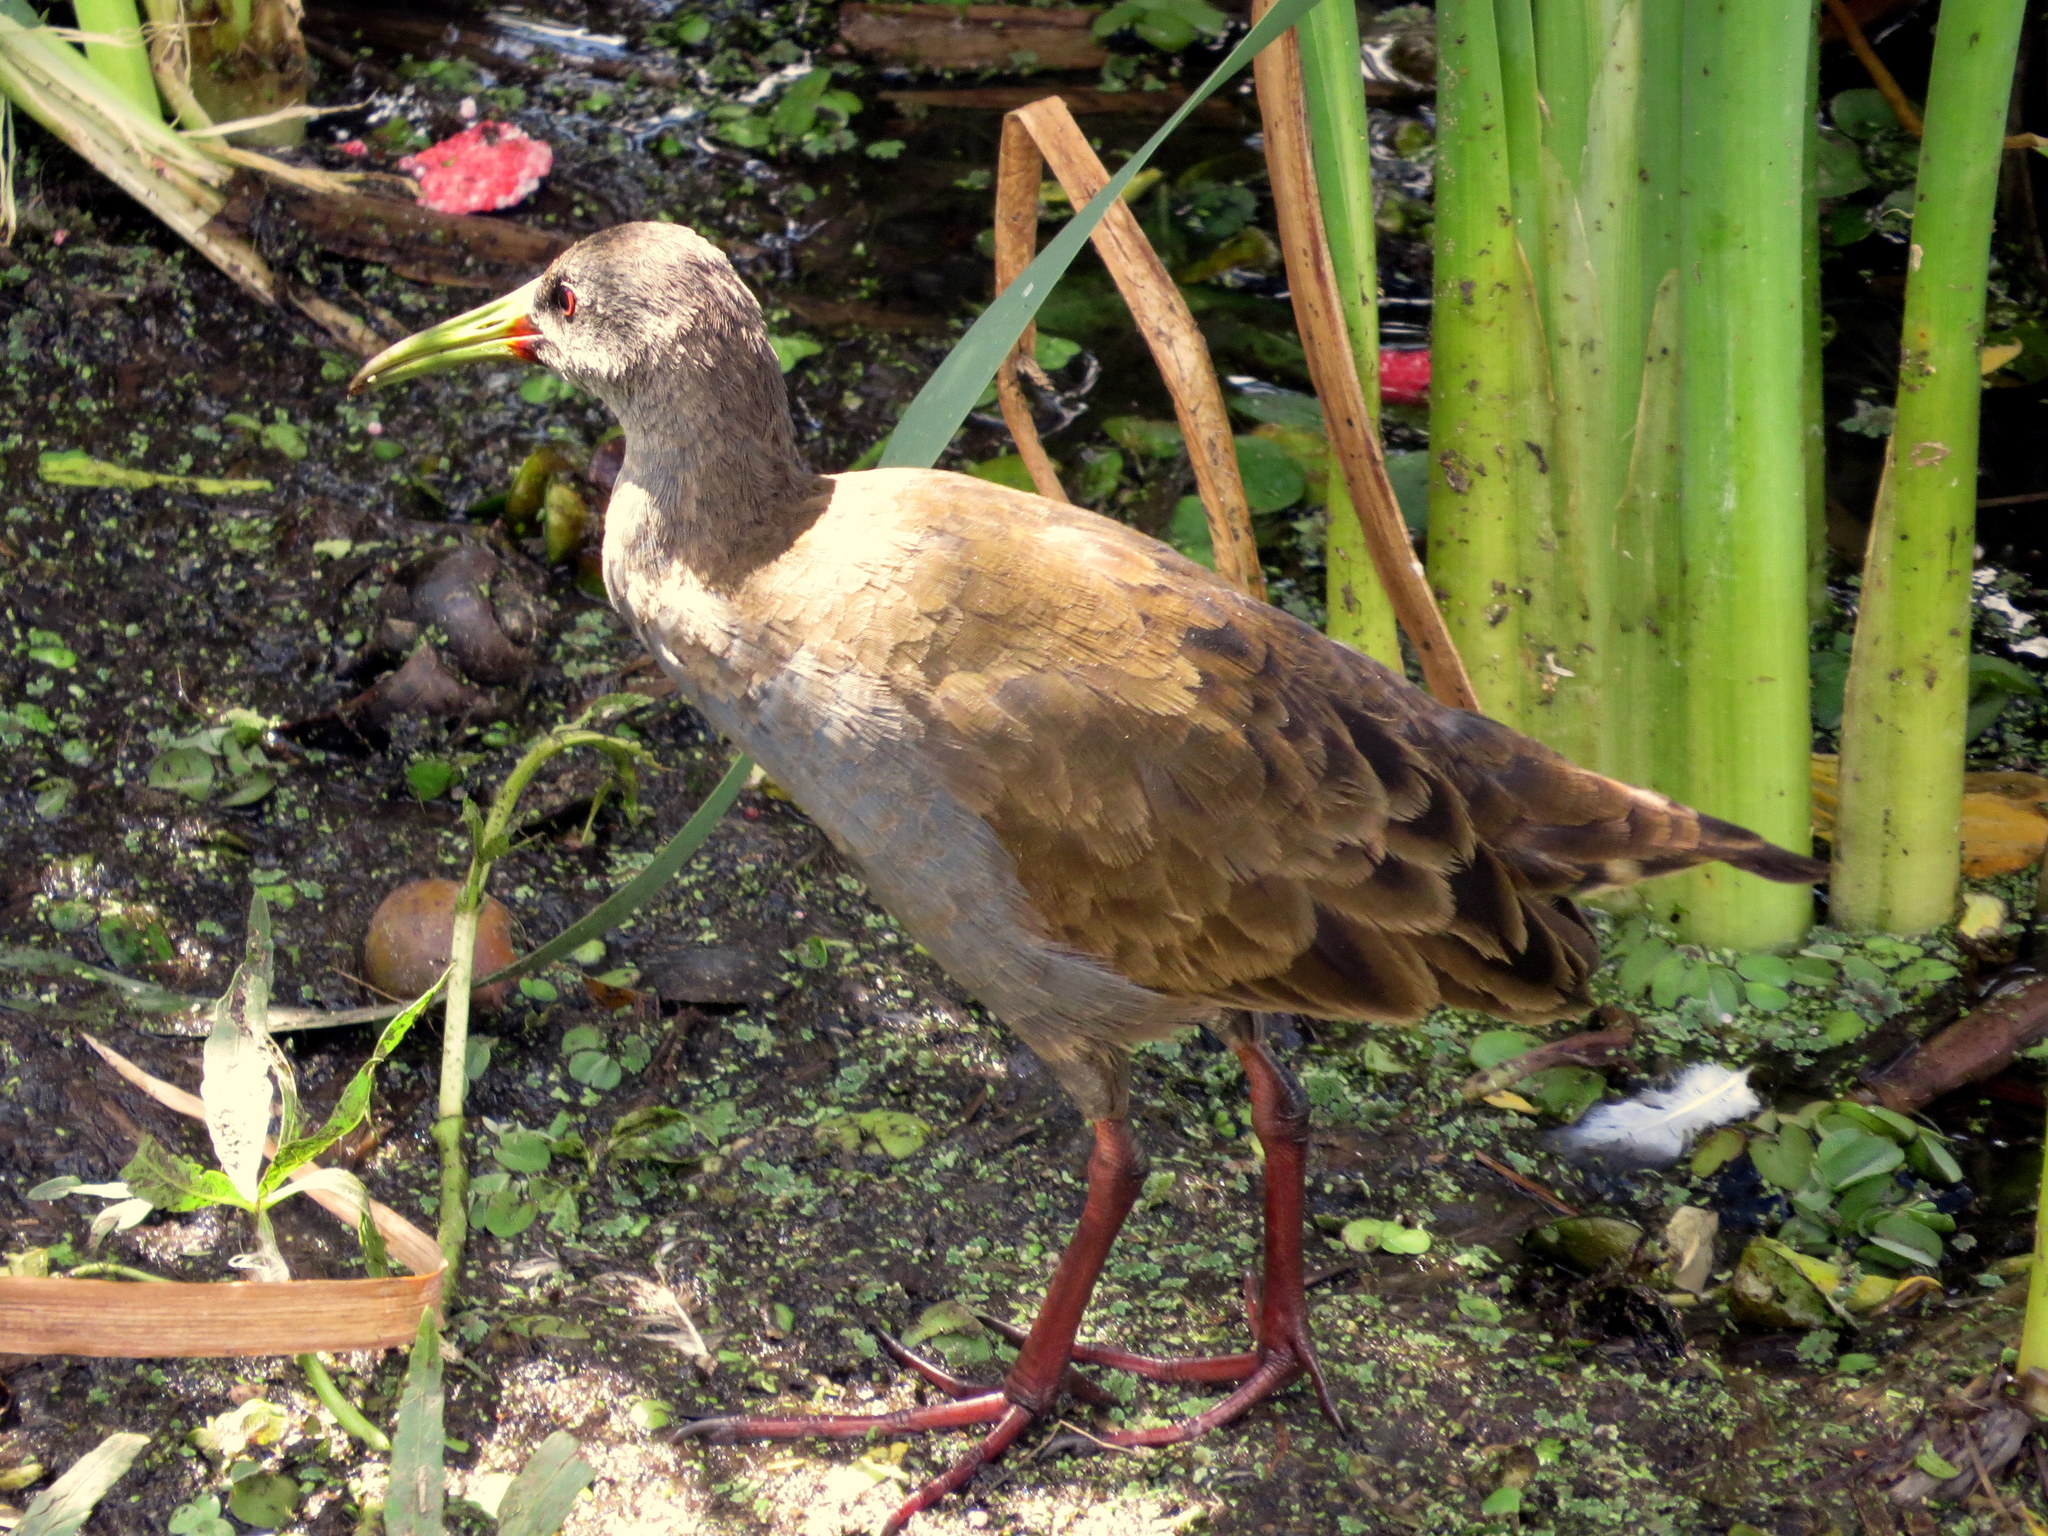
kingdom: Animalia
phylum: Chordata
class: Aves
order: Gruiformes
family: Rallidae
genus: Pardirallus
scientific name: Pardirallus sanguinolentus
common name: Plumbeous rail
